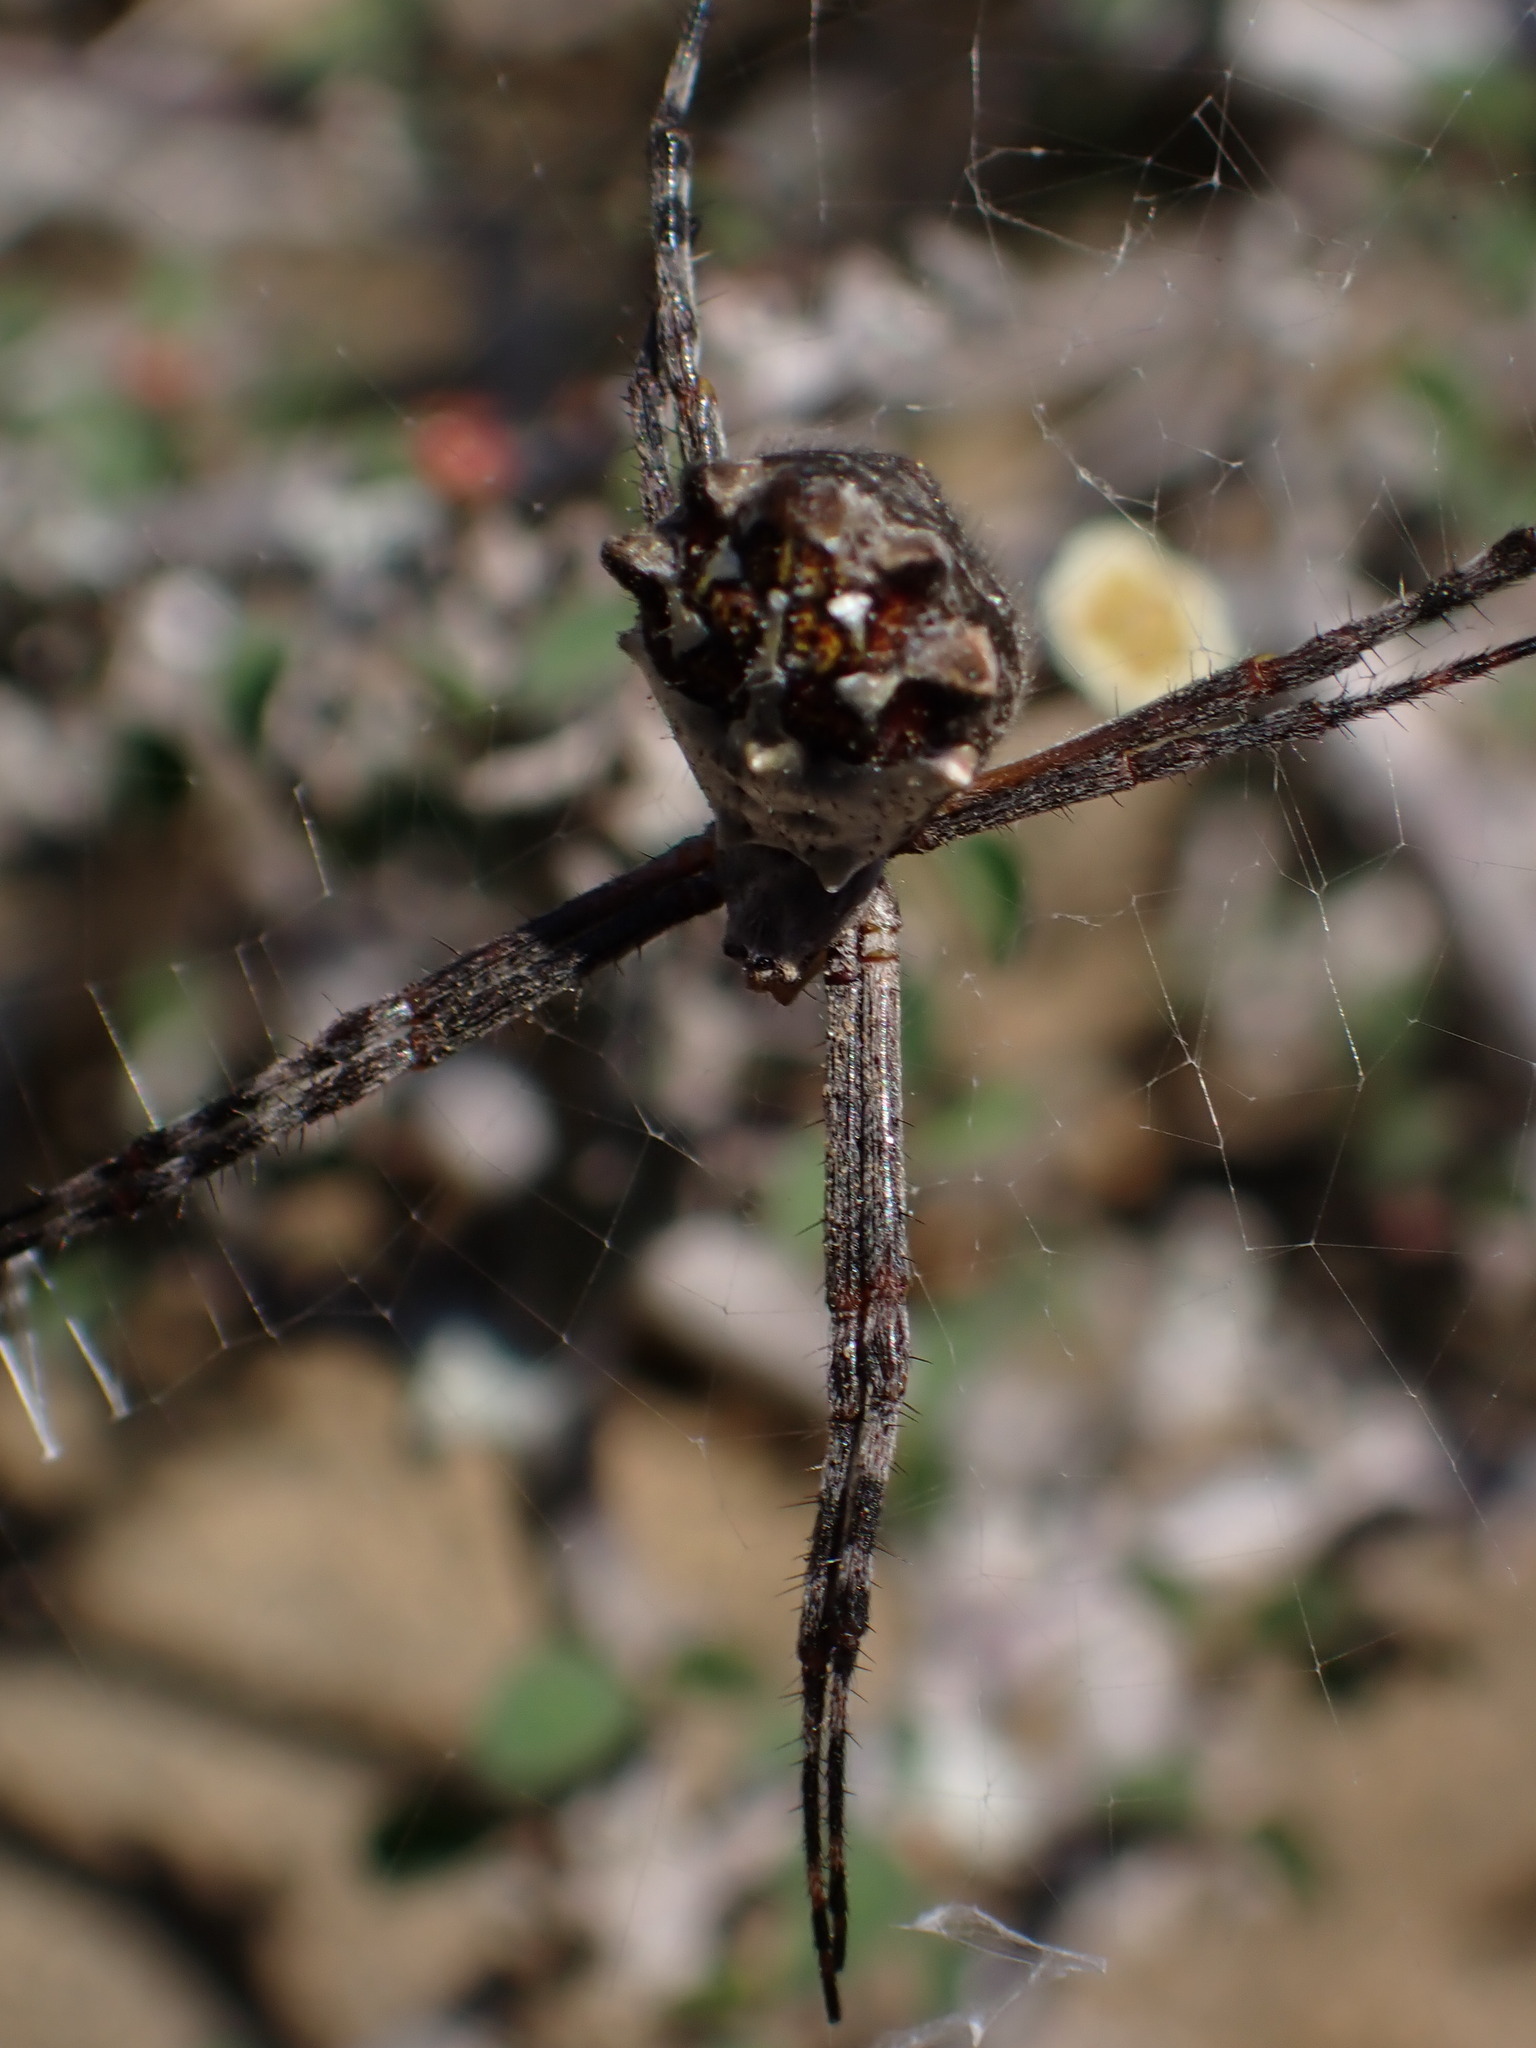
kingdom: Animalia
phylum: Arthropoda
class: Arachnida
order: Araneae
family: Araneidae
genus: Argiope
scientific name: Argiope argentata
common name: Orb weavers
